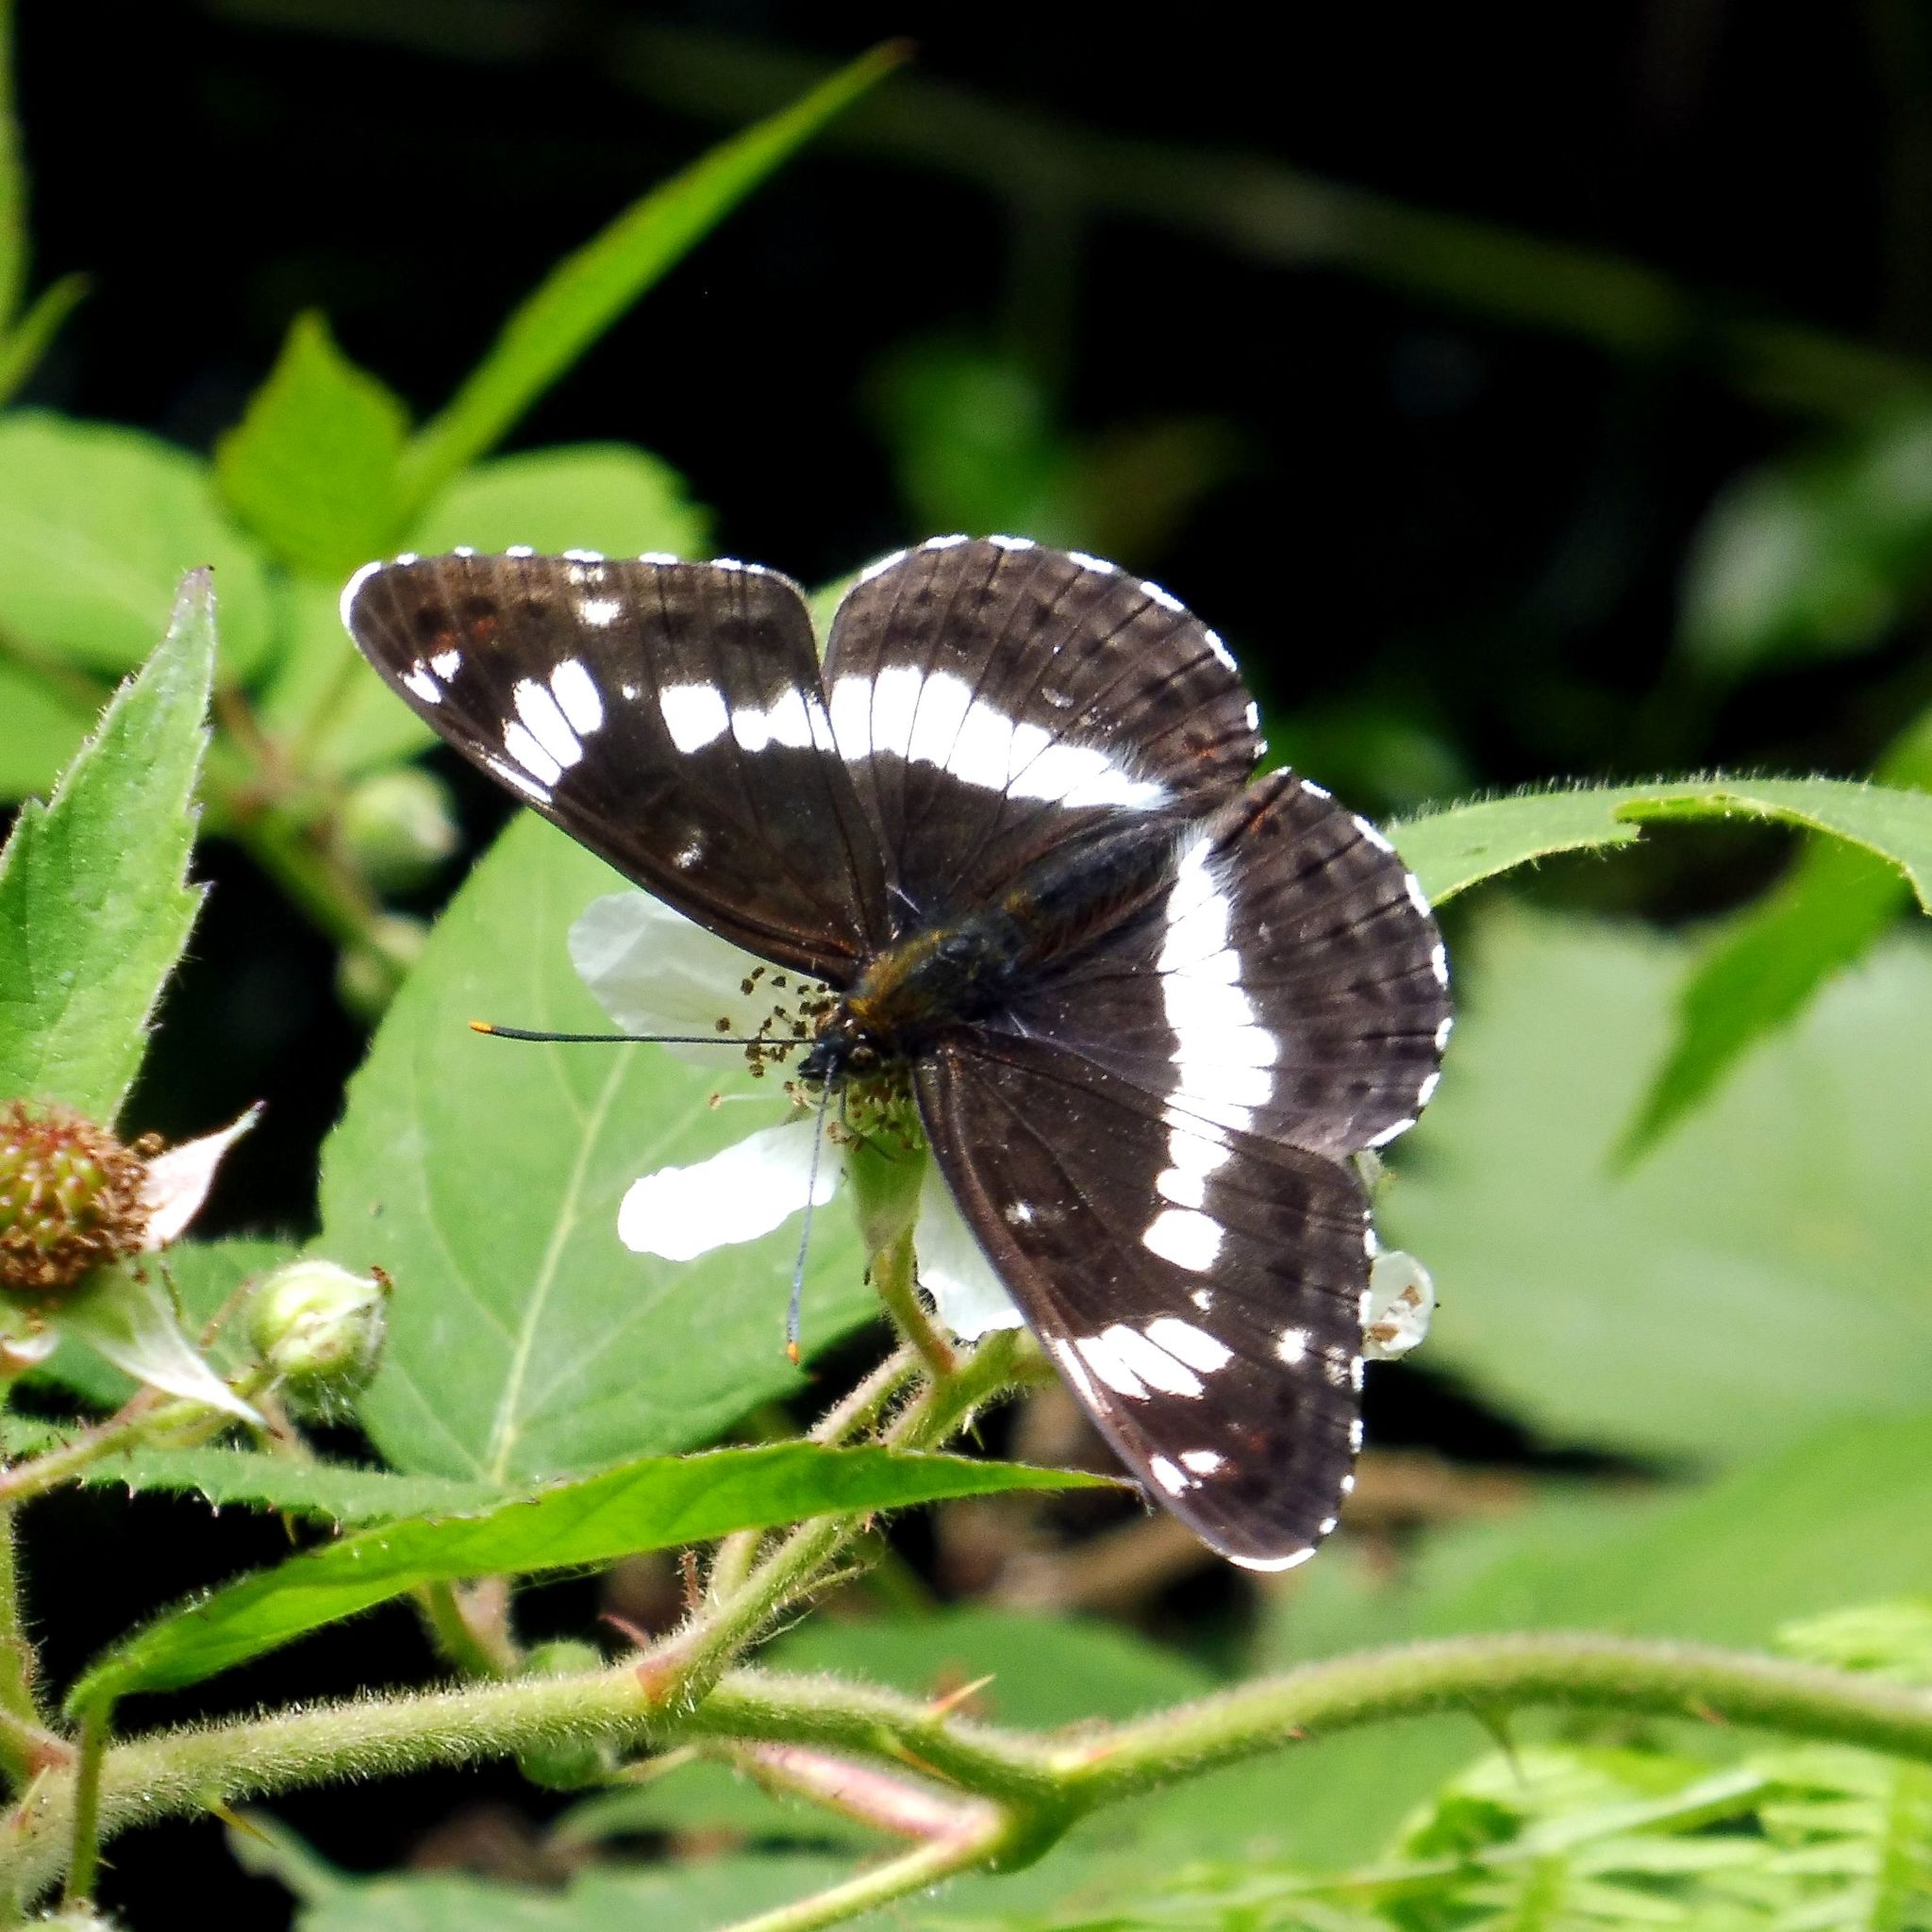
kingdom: Animalia
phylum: Arthropoda
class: Insecta
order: Lepidoptera
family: Nymphalidae
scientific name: Nymphalidae
